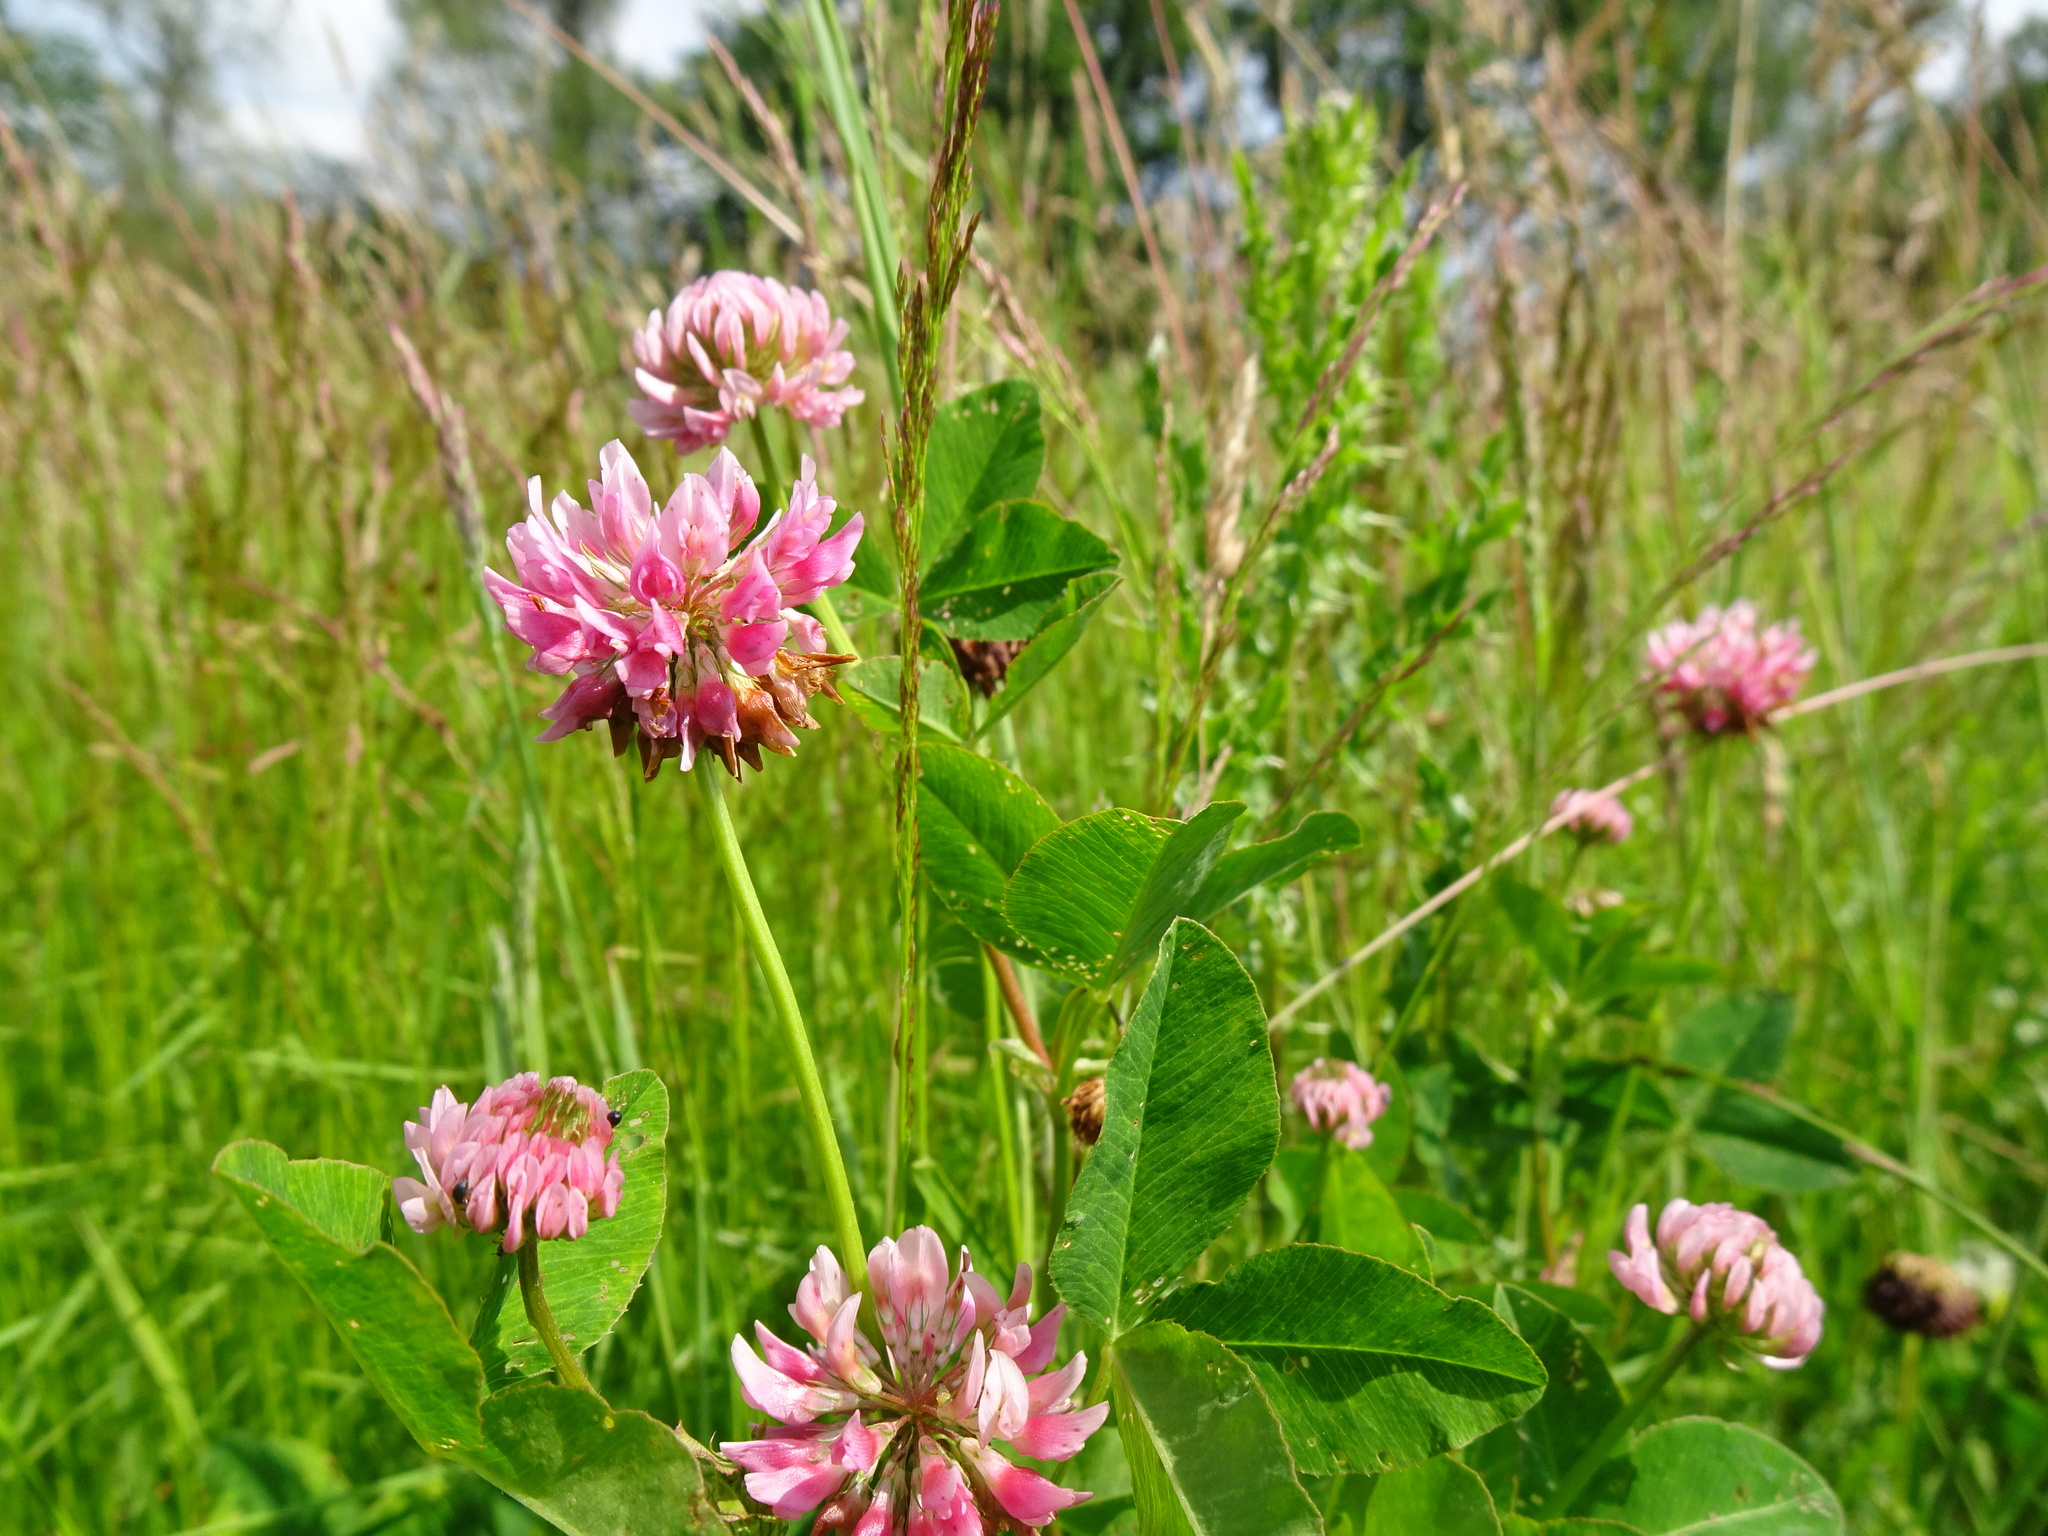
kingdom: Plantae
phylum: Tracheophyta
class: Magnoliopsida
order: Fabales
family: Fabaceae
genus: Trifolium
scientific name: Trifolium pratense
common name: Red clover
